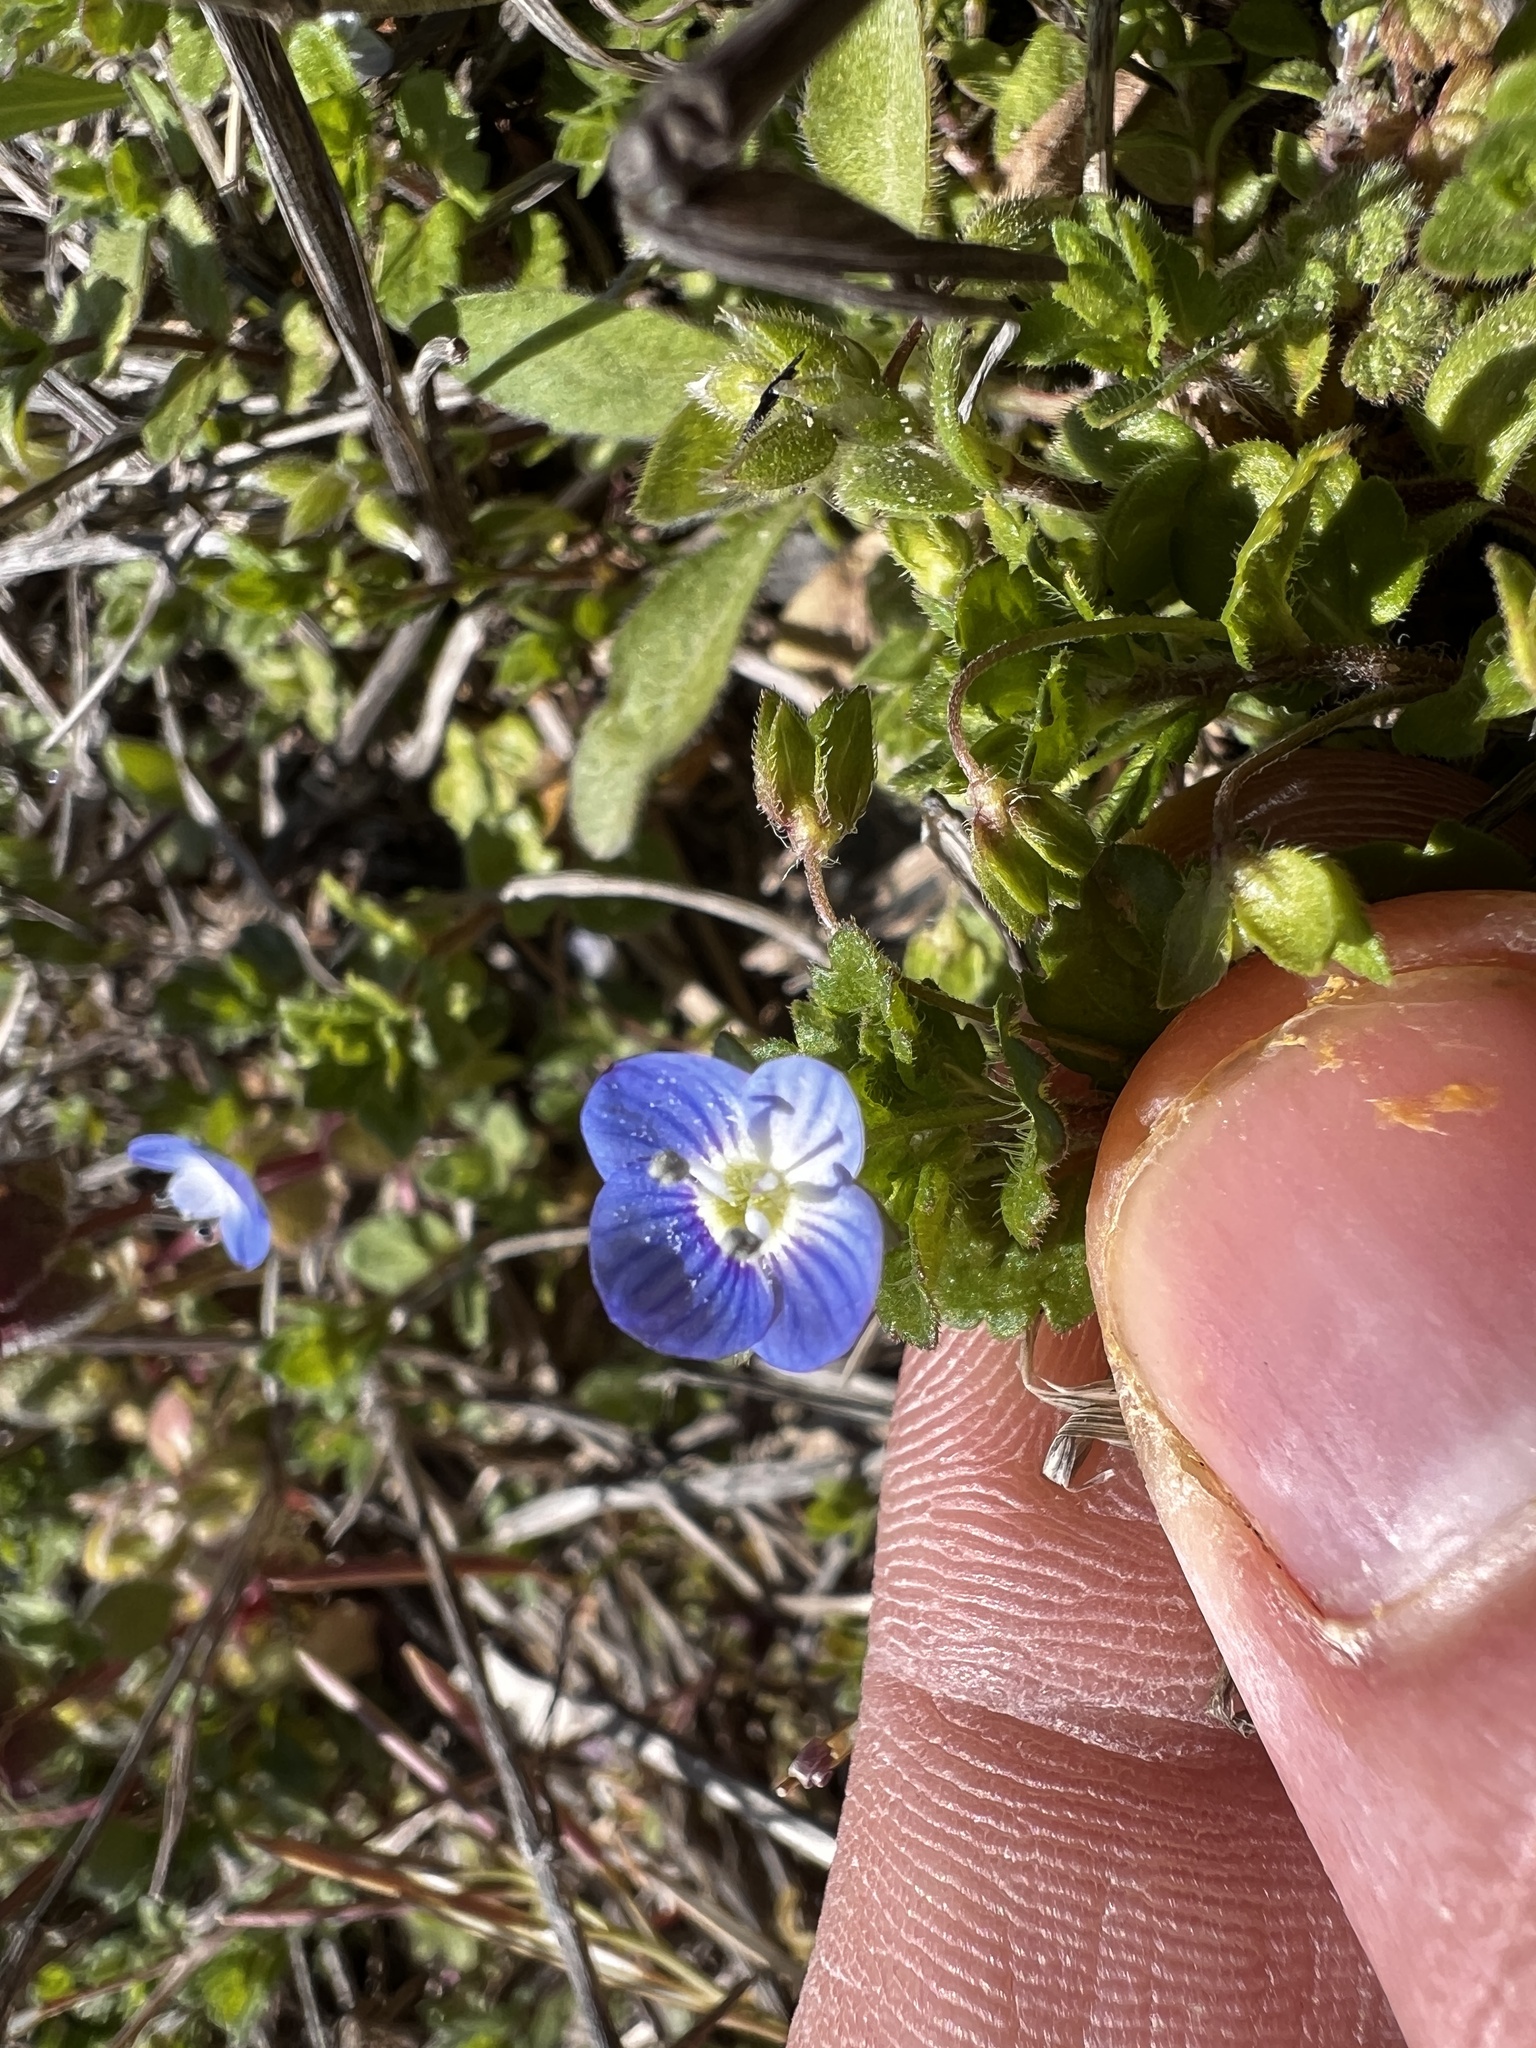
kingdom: Plantae
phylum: Tracheophyta
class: Magnoliopsida
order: Lamiales
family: Plantaginaceae
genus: Veronica
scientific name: Veronica polita
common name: Grey field-speedwell
